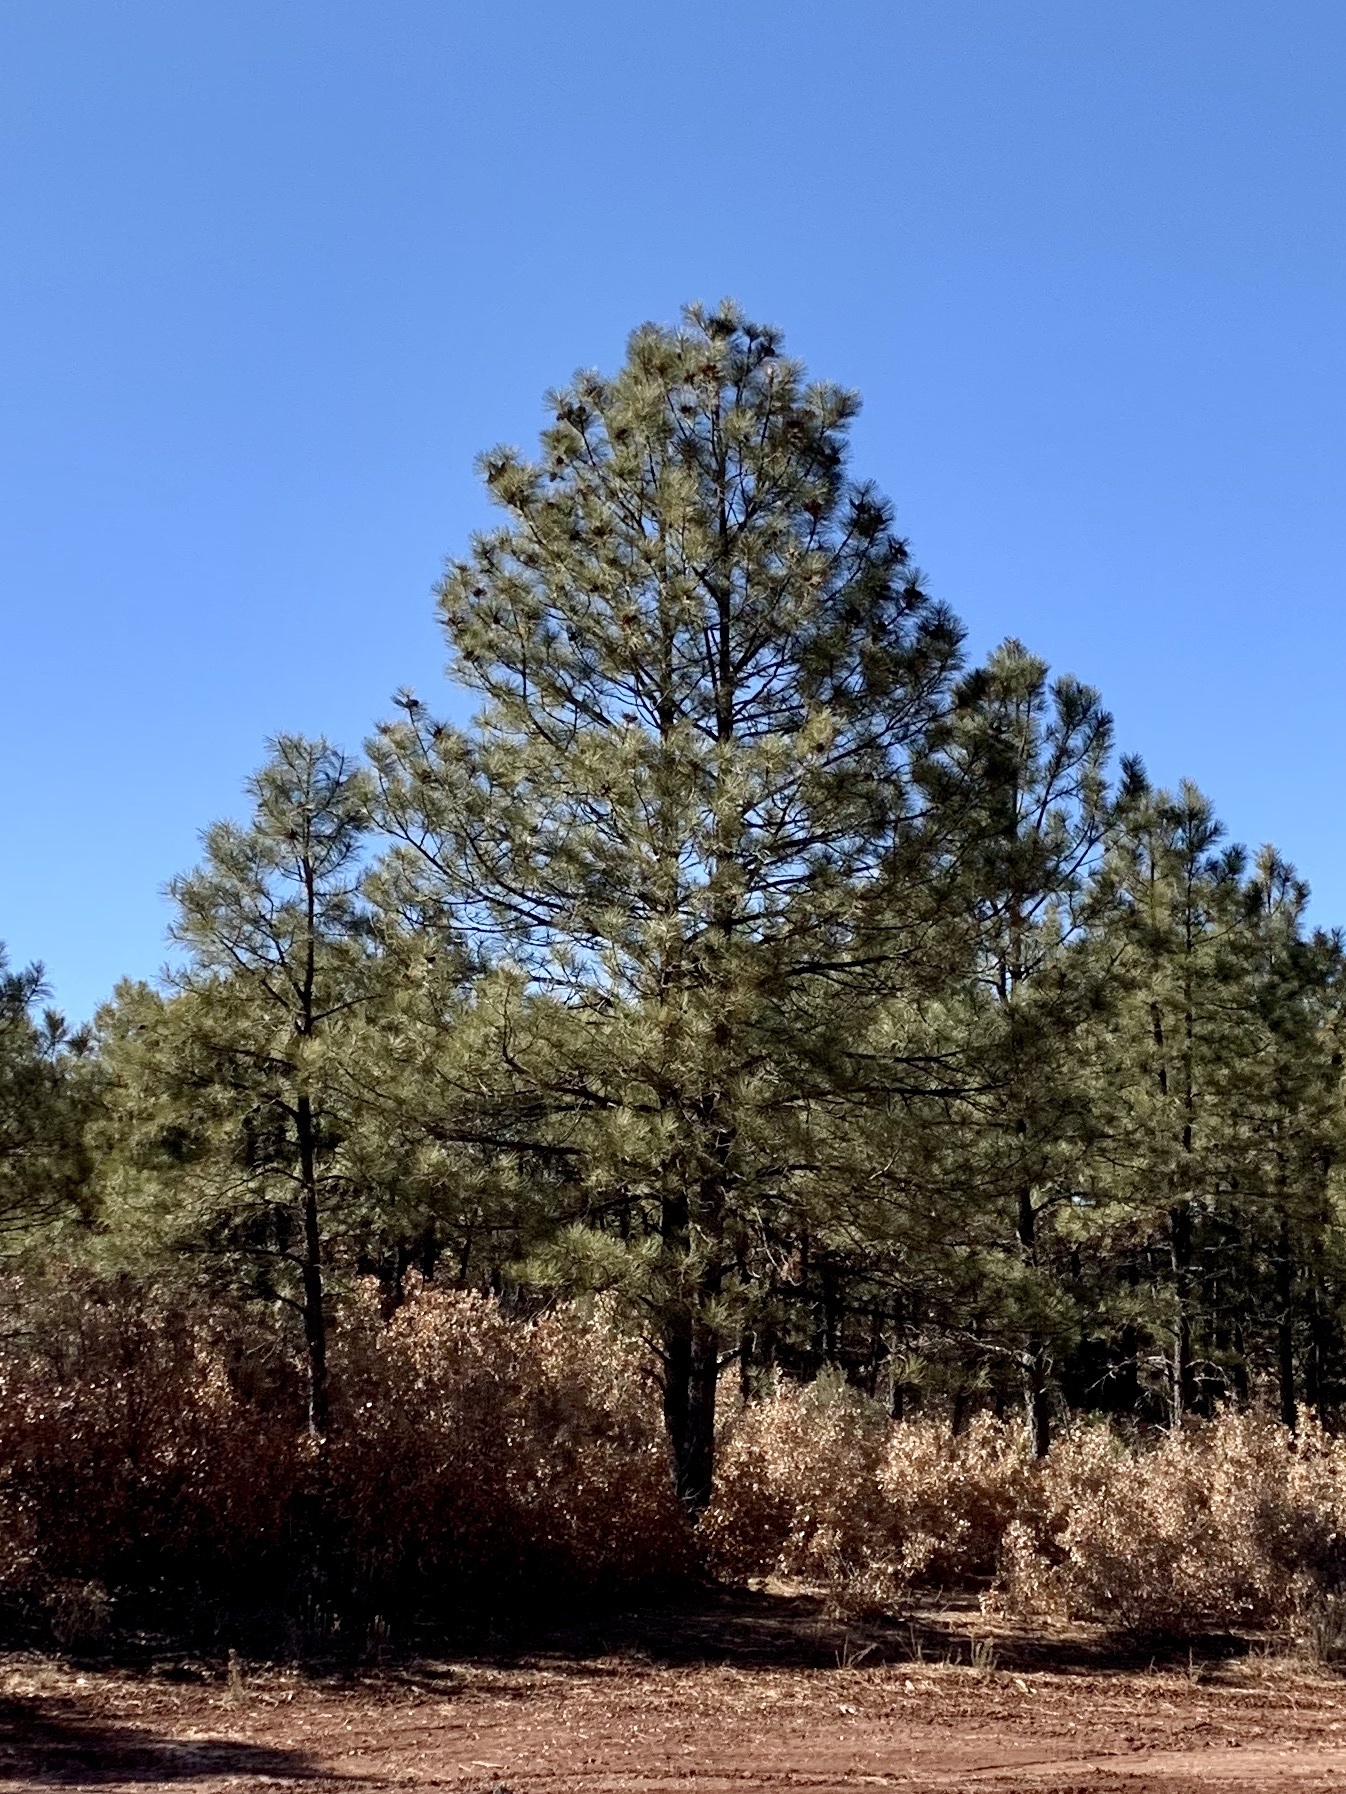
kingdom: Plantae
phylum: Tracheophyta
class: Pinopsida
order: Pinales
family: Pinaceae
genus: Pinus
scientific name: Pinus ponderosa
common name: Western yellow-pine
